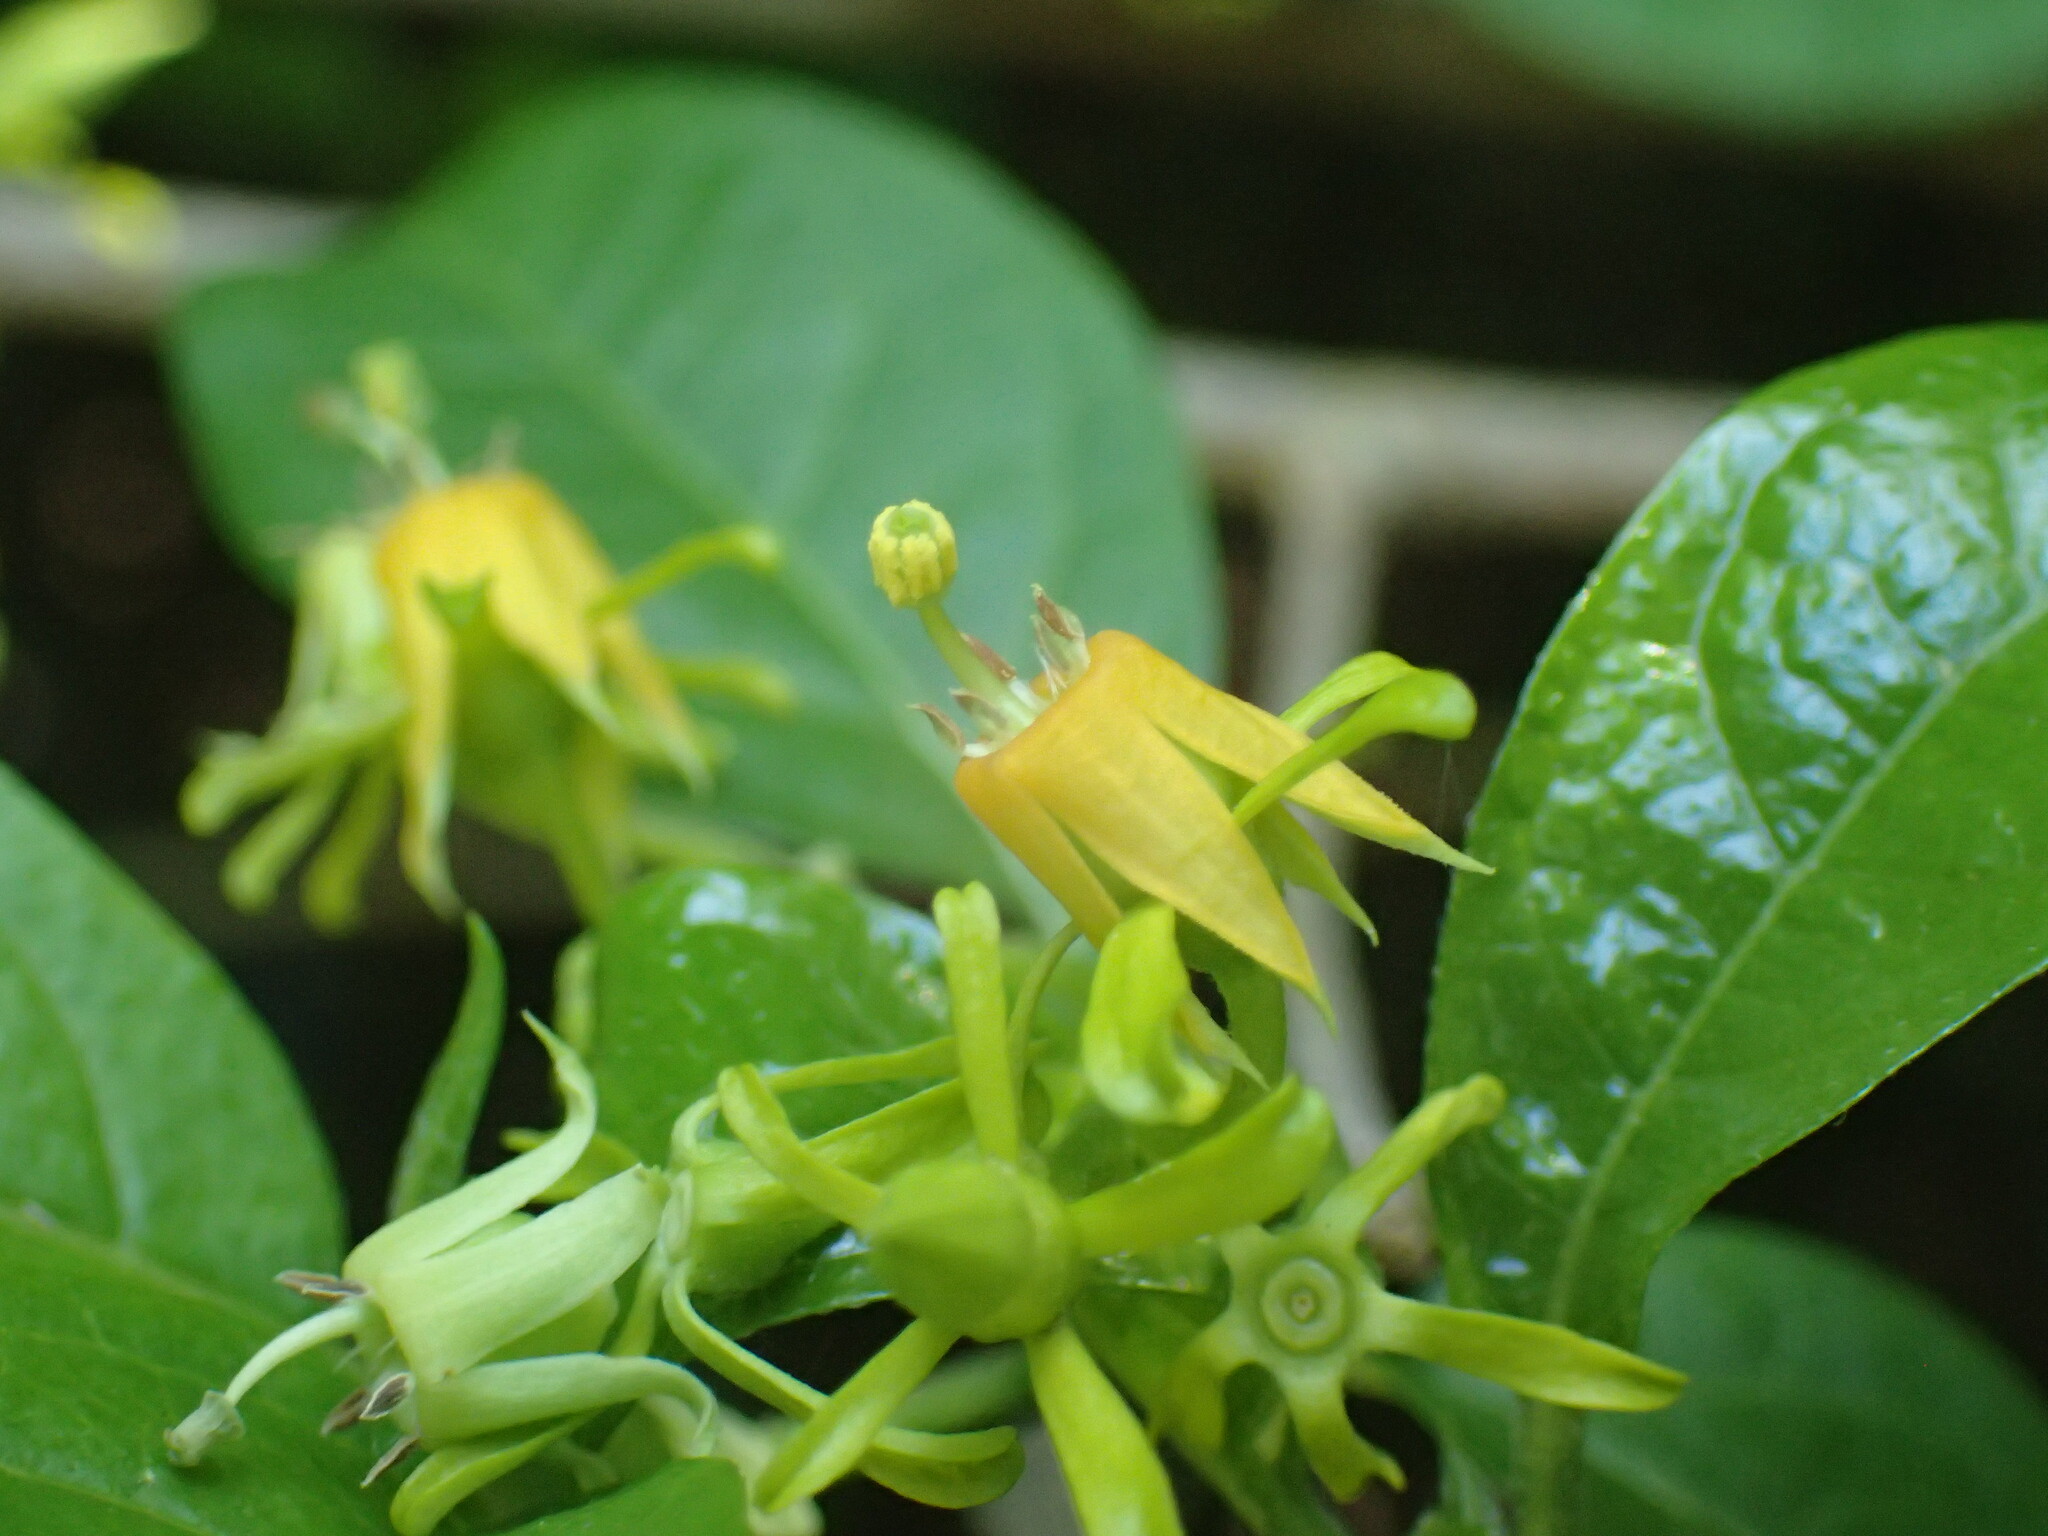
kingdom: Plantae
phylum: Tracheophyta
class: Magnoliopsida
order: Gentianales
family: Rubiaceae
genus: Vangueria
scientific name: Vangueria lasiantha
